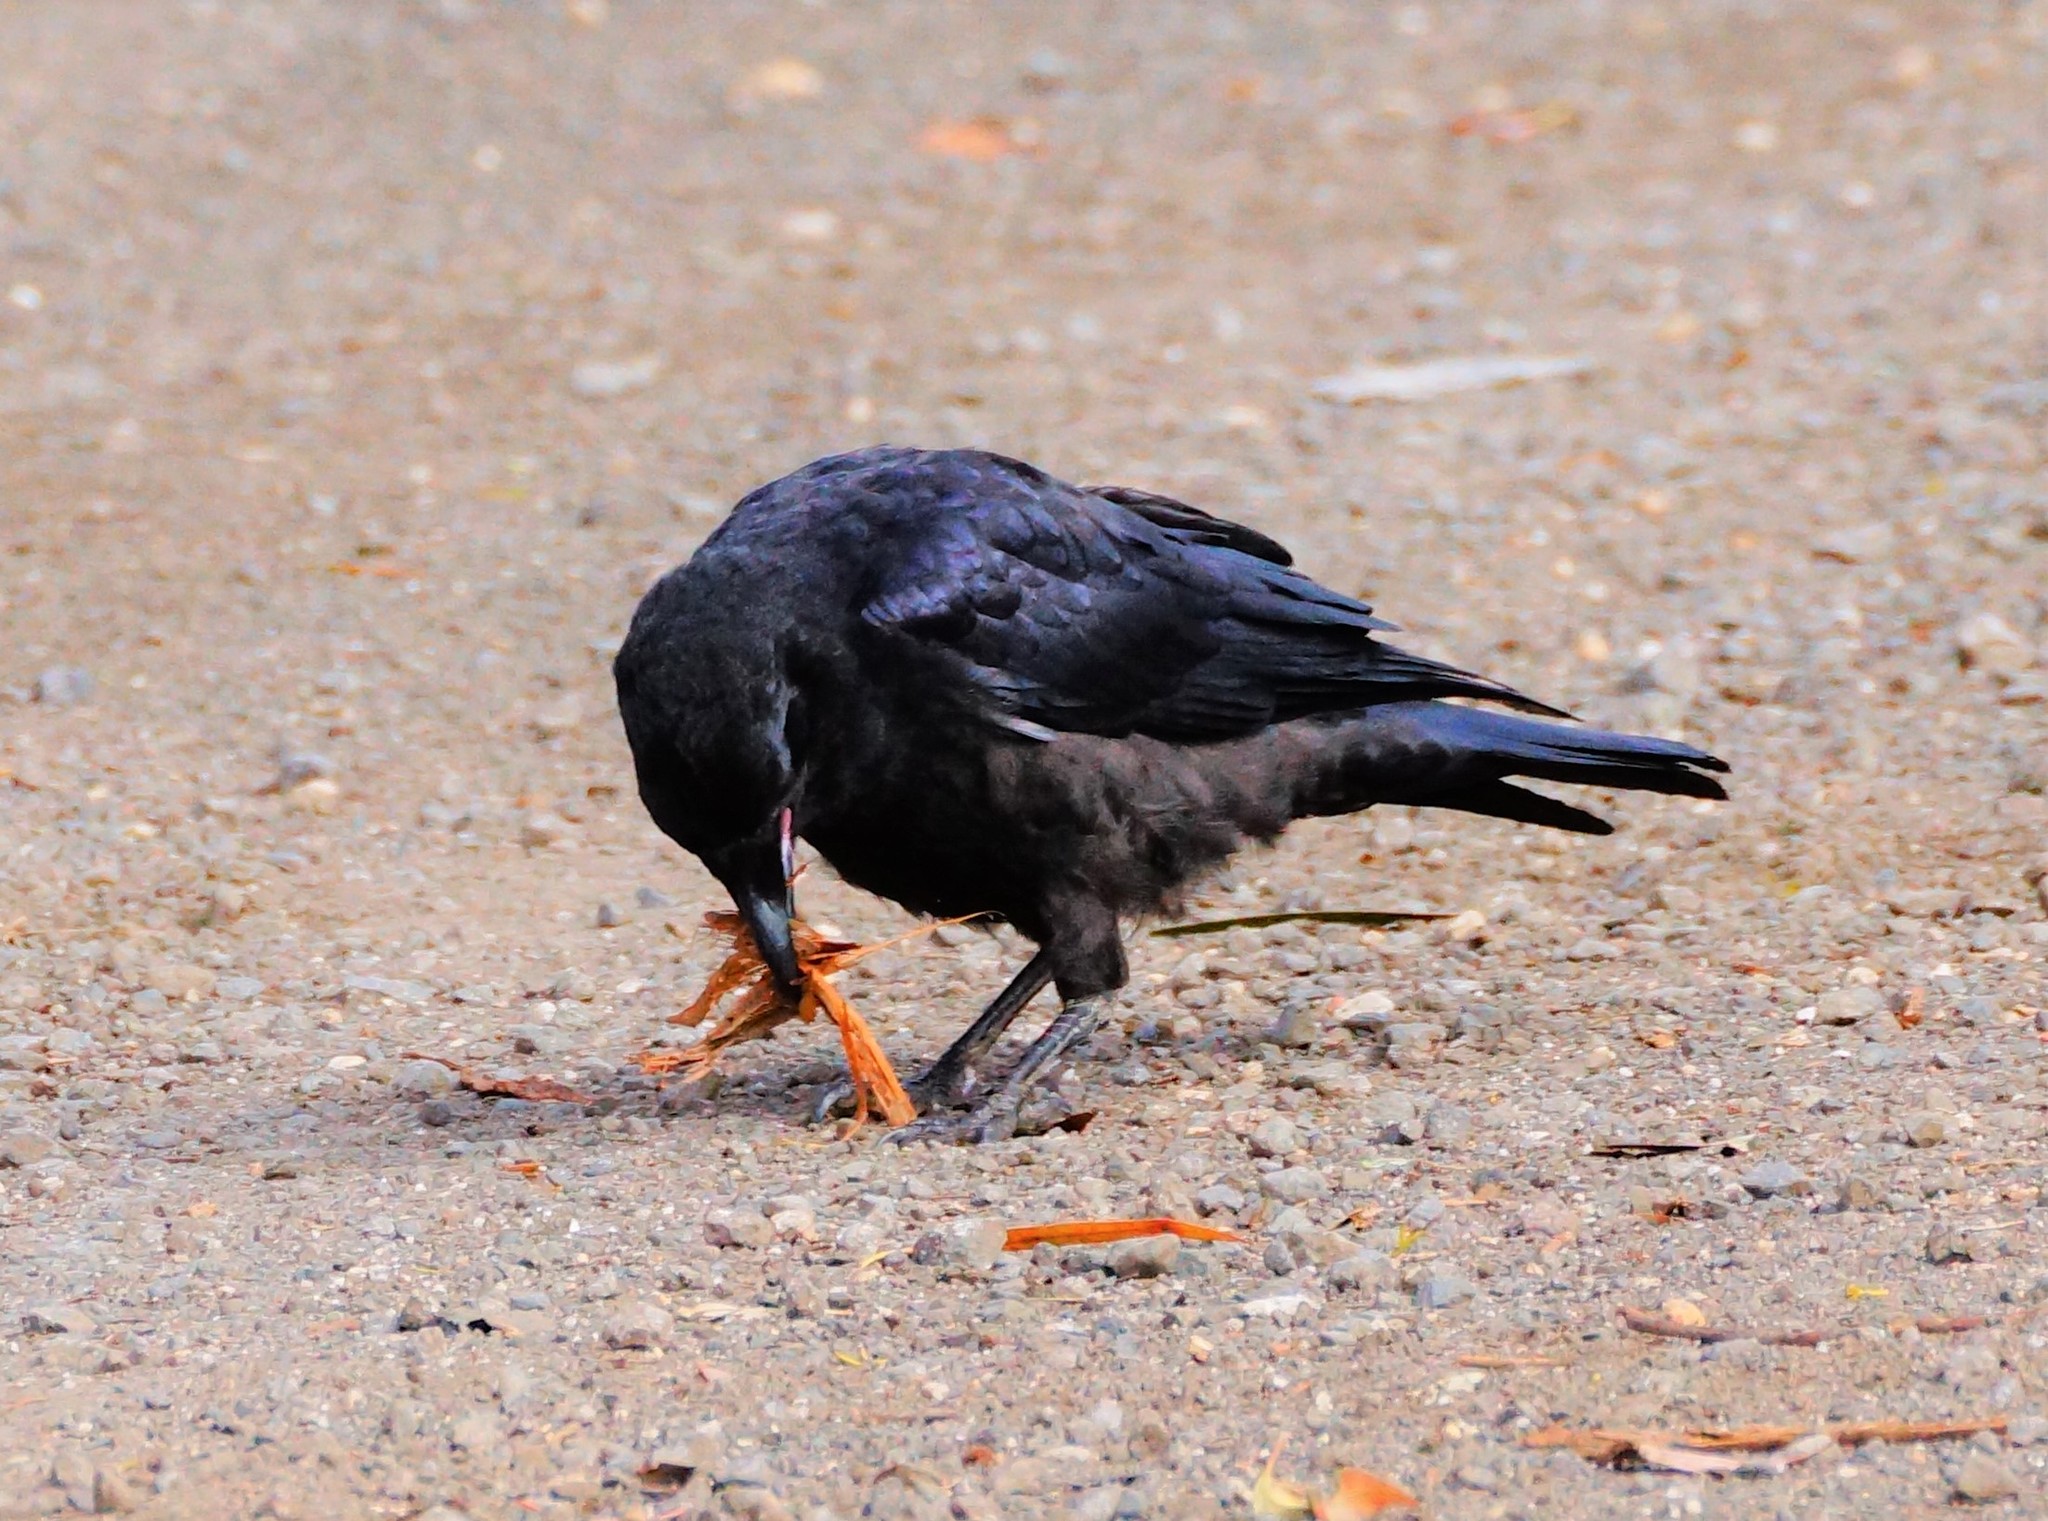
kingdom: Animalia
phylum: Chordata
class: Aves
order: Passeriformes
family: Corvidae
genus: Corvus
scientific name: Corvus mellori
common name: Little raven
